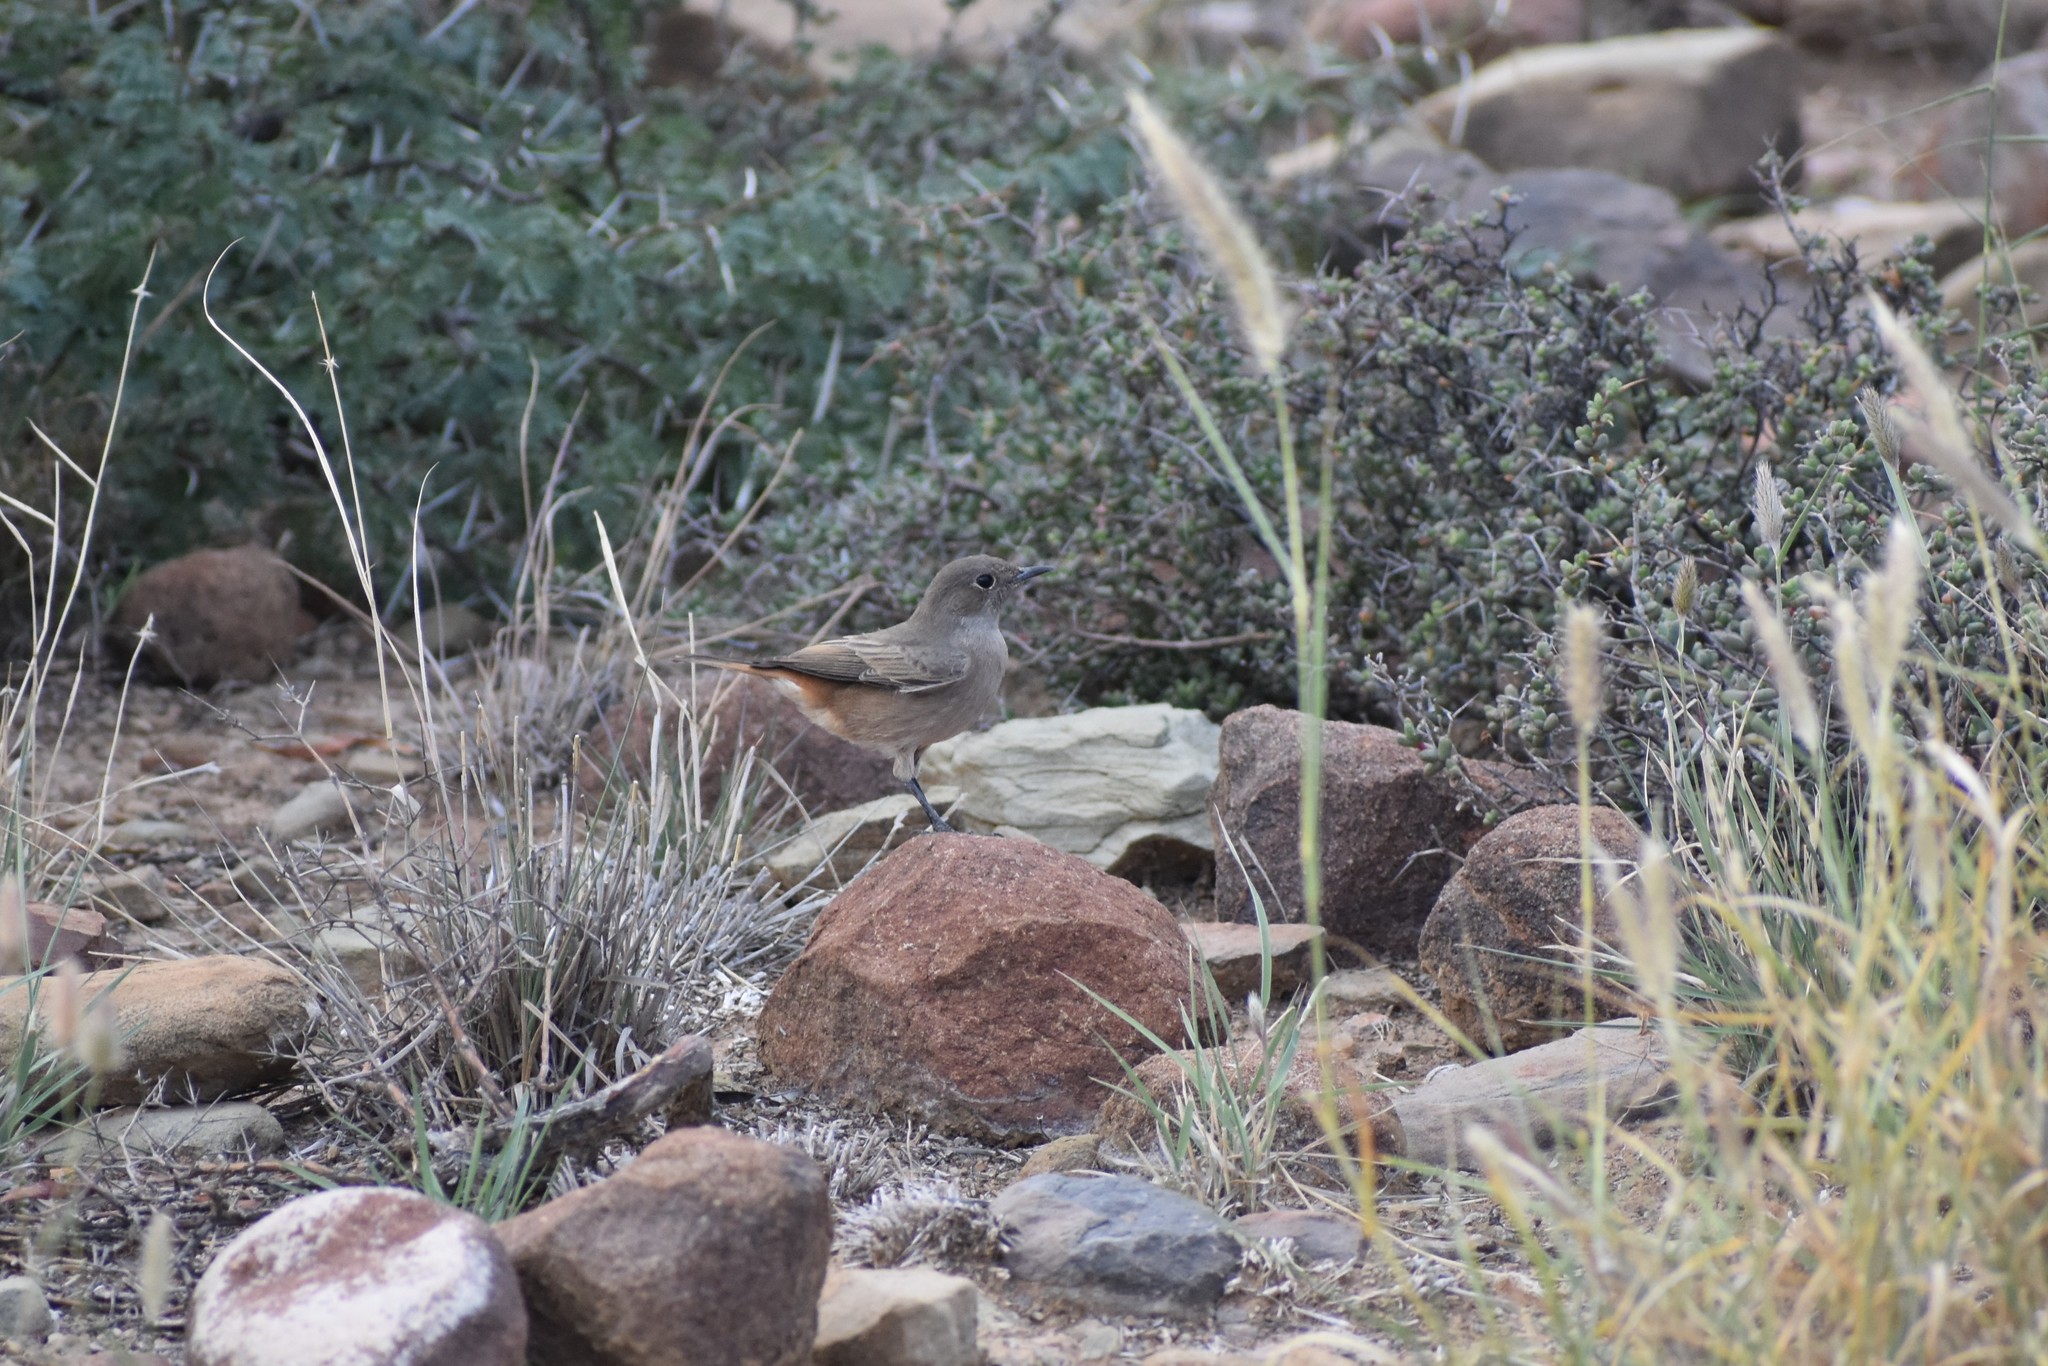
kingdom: Animalia
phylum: Chordata
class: Aves
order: Passeriformes
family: Muscicapidae
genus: Oenanthe
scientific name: Oenanthe familiaris
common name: Familiar chat
